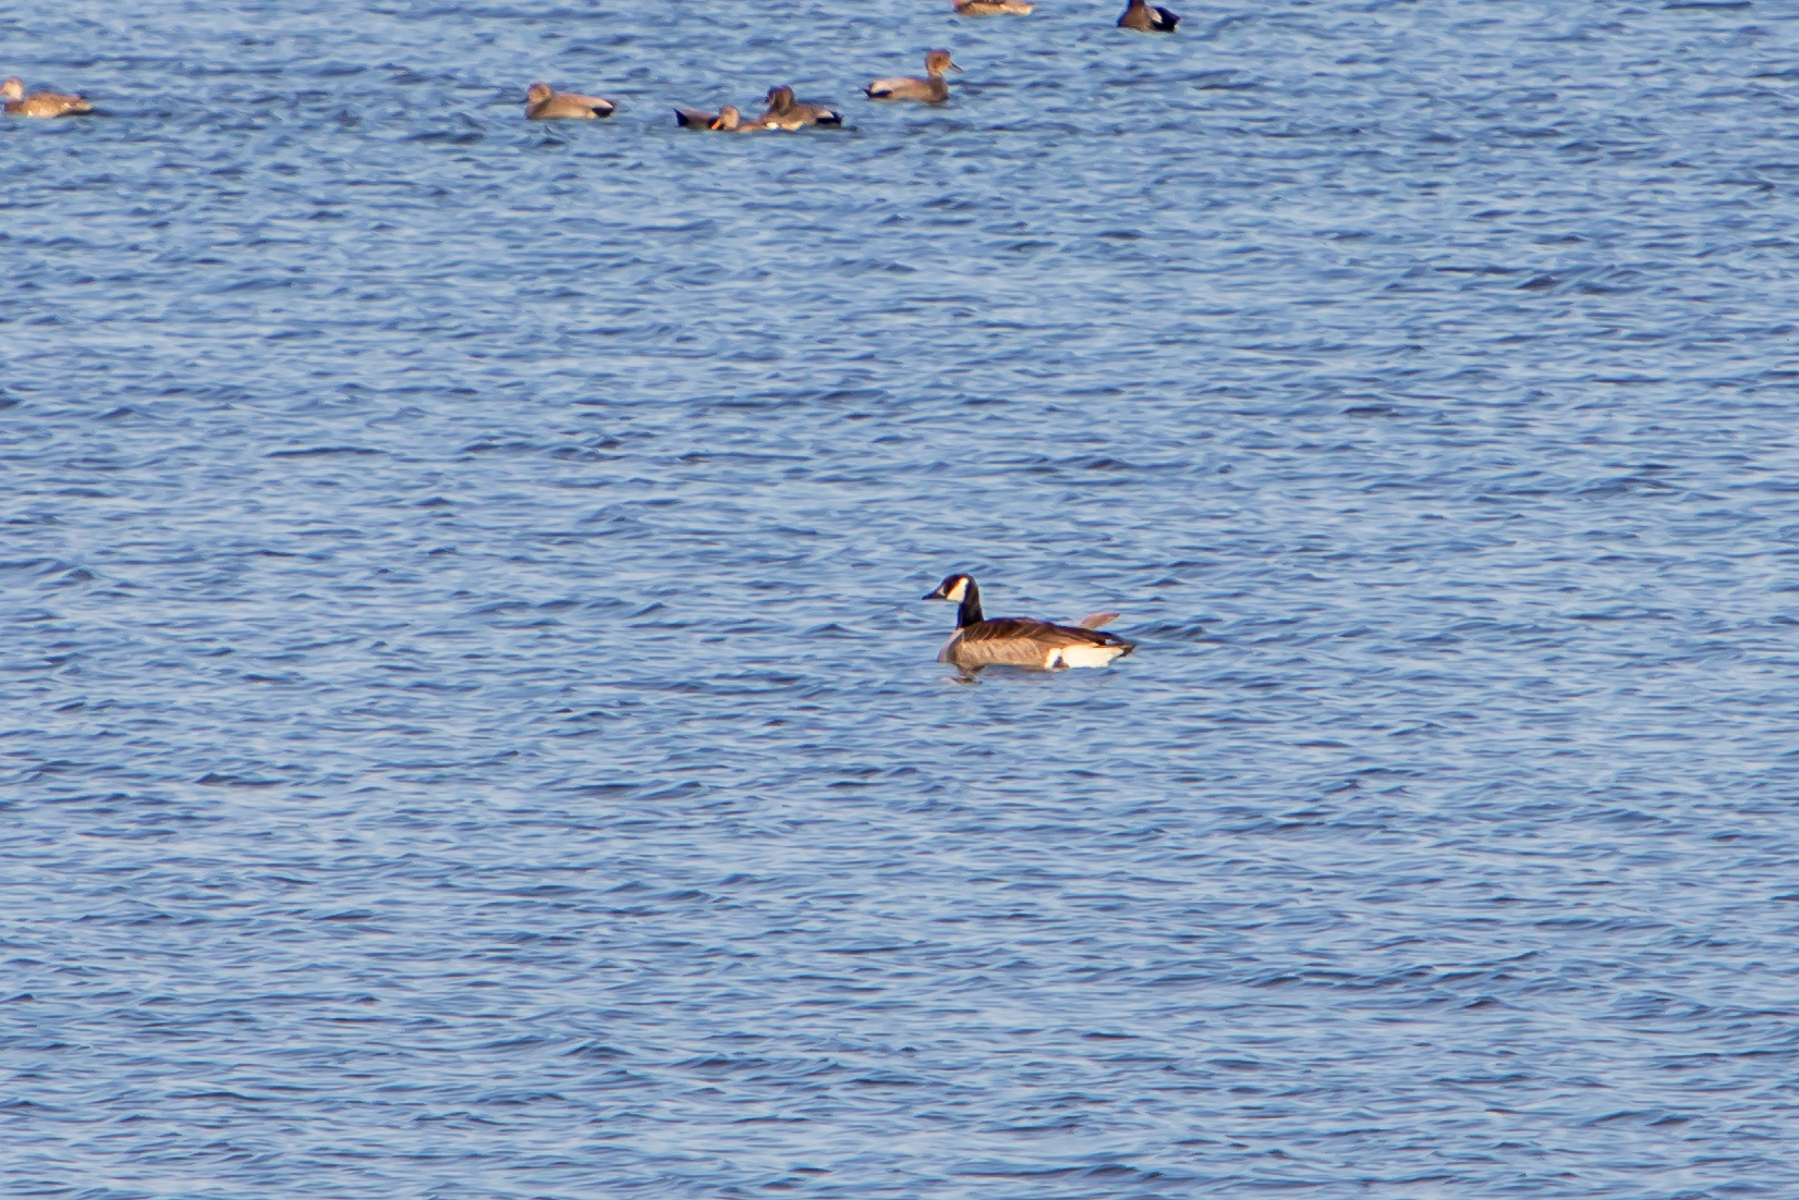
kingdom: Animalia
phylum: Chordata
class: Aves
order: Anseriformes
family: Anatidae
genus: Branta
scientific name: Branta canadensis
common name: Canada goose
